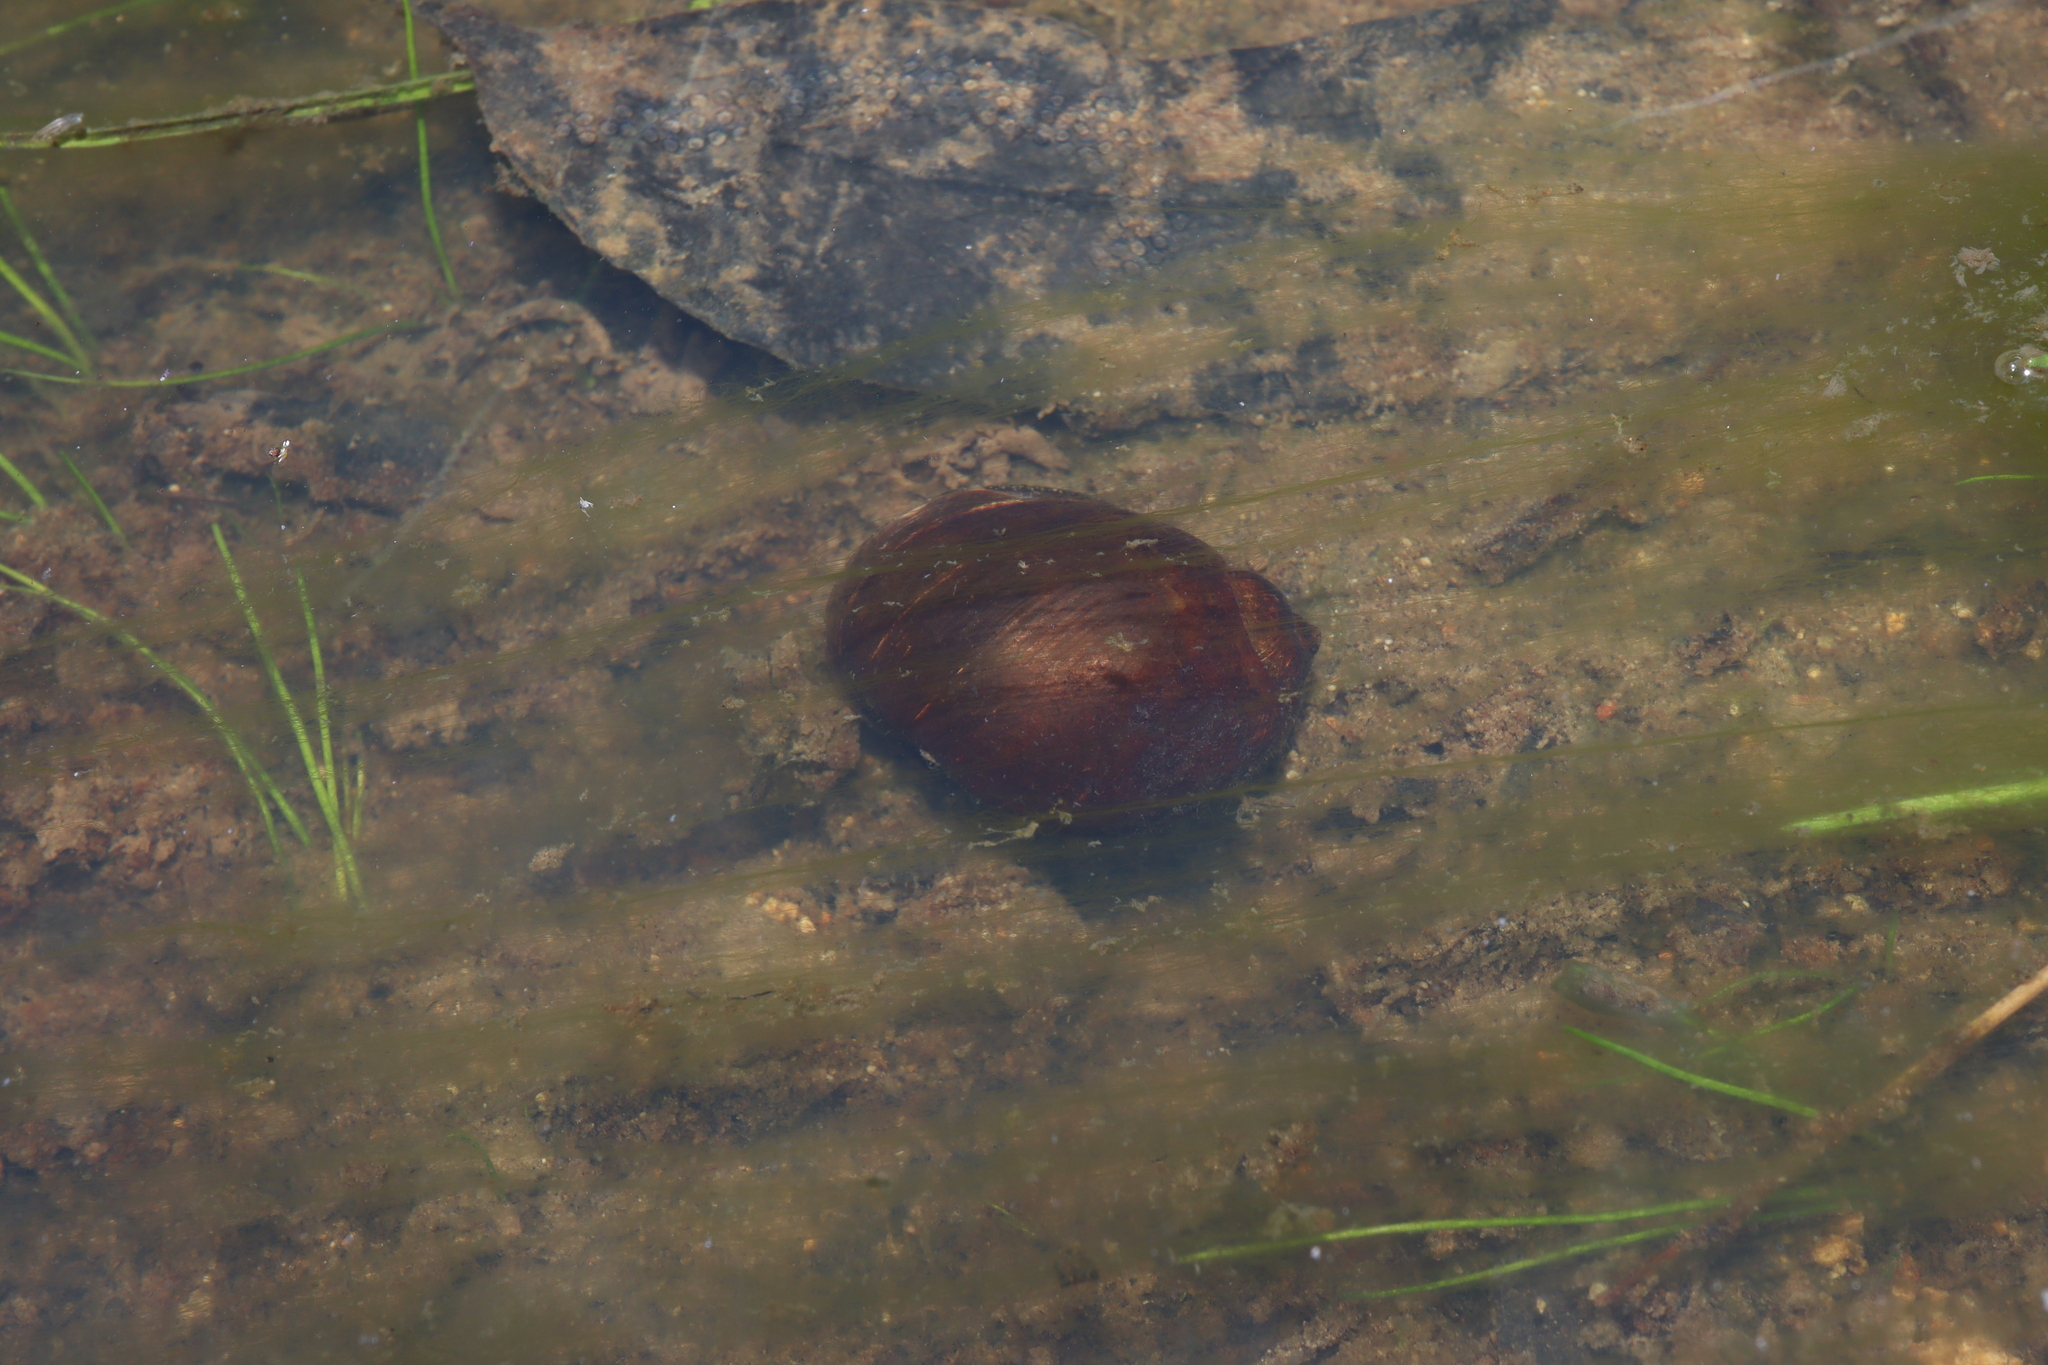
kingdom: Animalia
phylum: Mollusca
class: Gastropoda
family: Lymnaeidae
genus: Bullastra
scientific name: Bullastra lessoni
